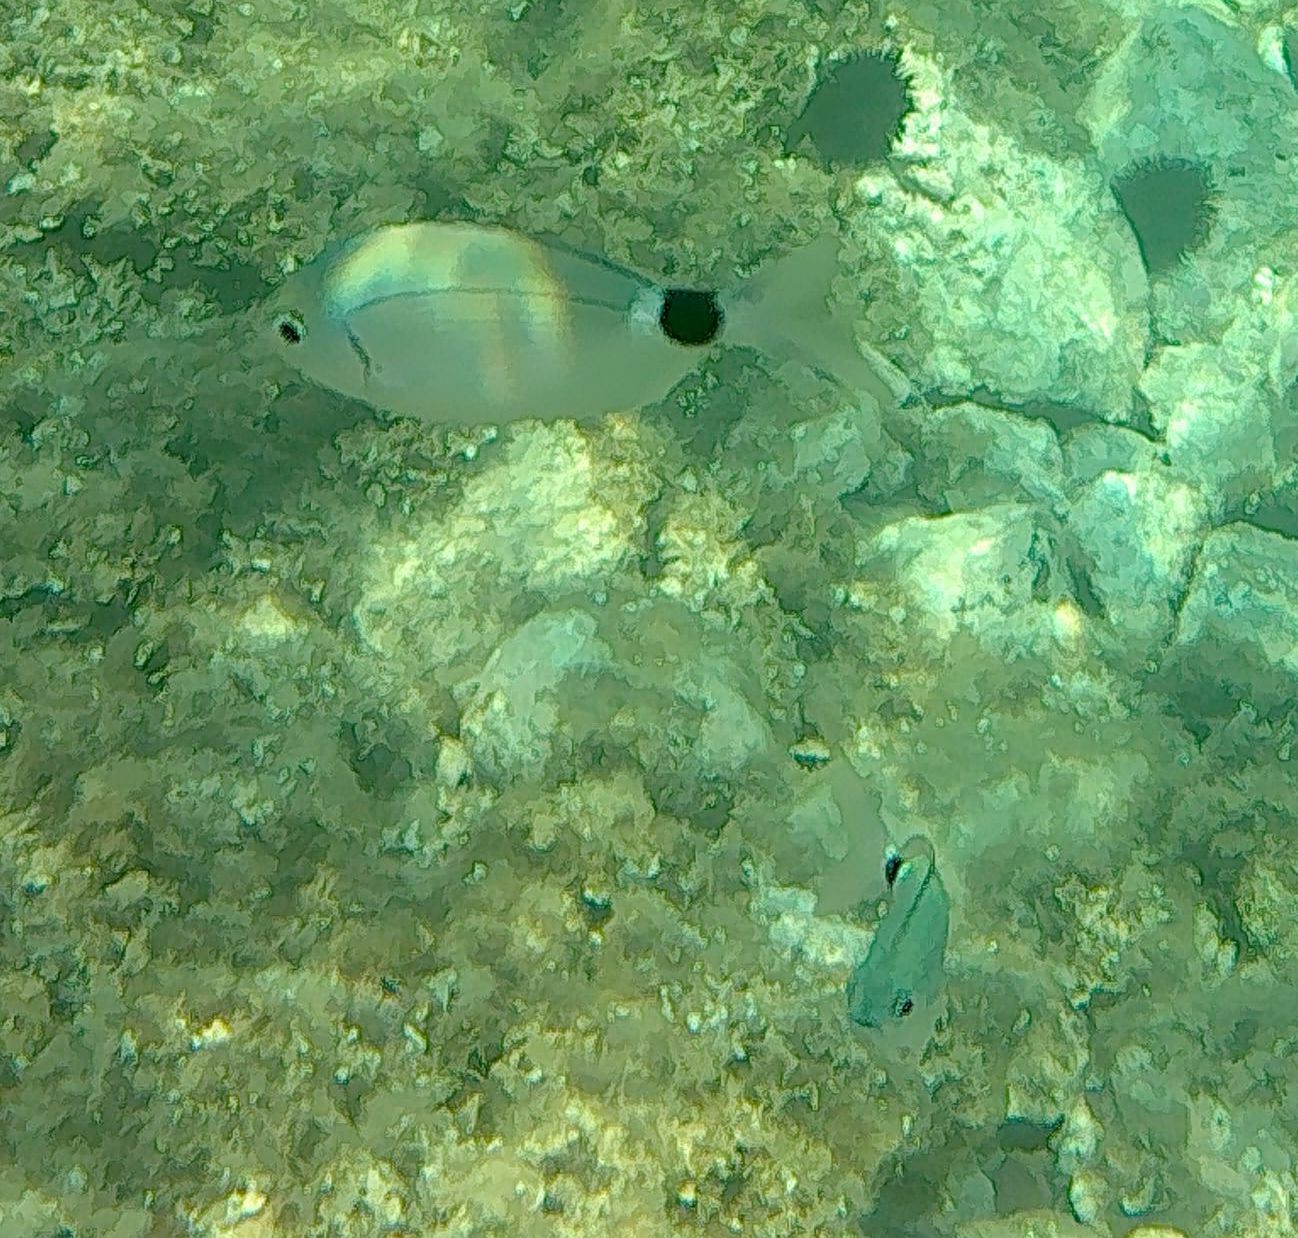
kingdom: Animalia
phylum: Chordata
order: Perciformes
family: Sparidae
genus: Oblada
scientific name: Oblada melanura
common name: Saddled seabream
